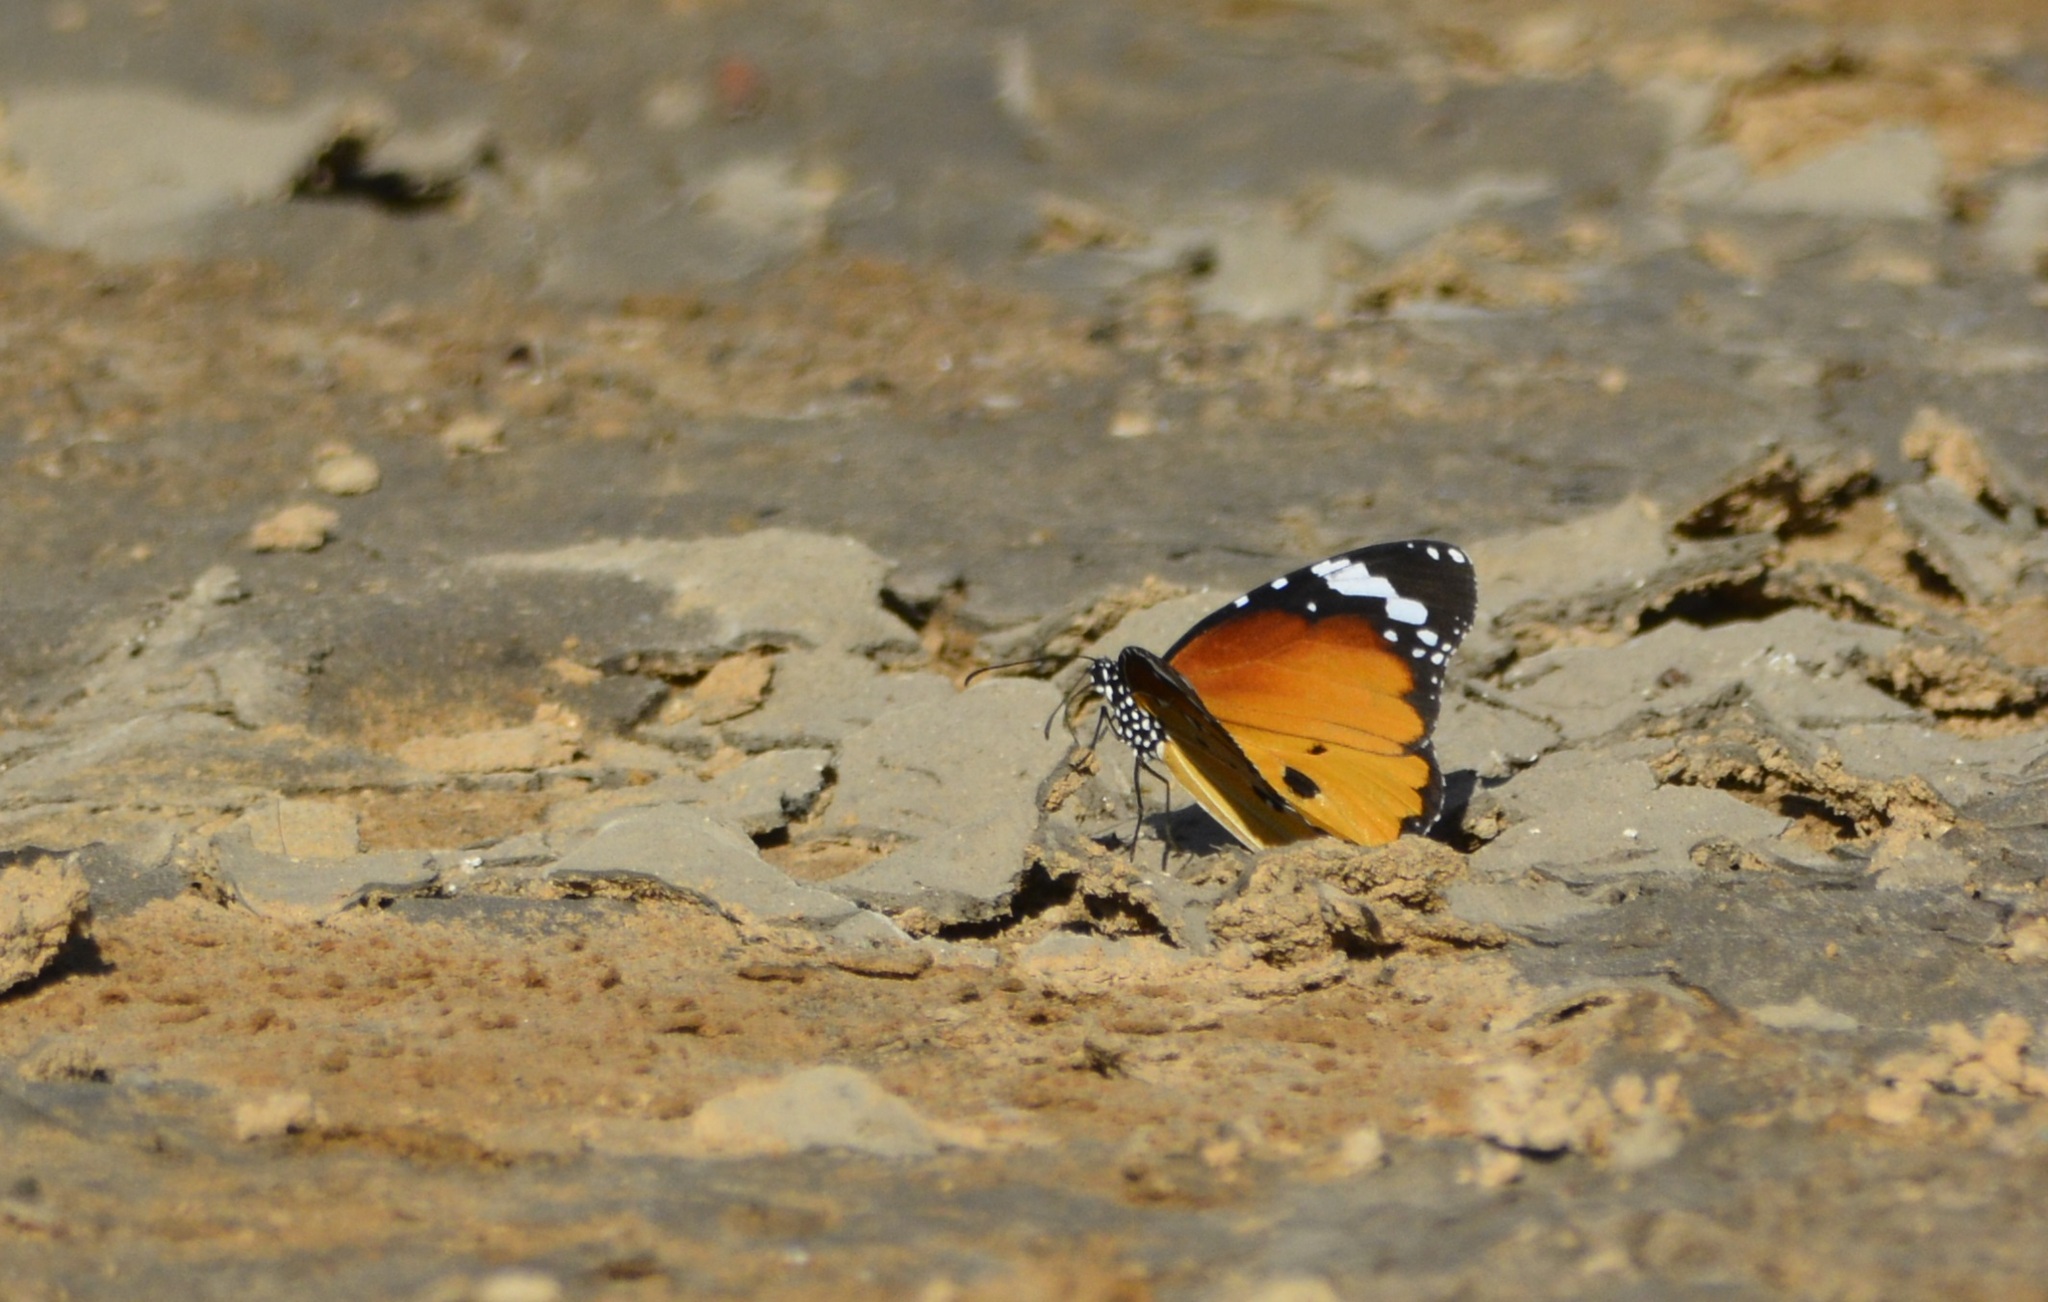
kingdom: Animalia
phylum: Arthropoda
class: Insecta
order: Lepidoptera
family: Nymphalidae
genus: Danaus
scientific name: Danaus chrysippus
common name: Plain tiger
